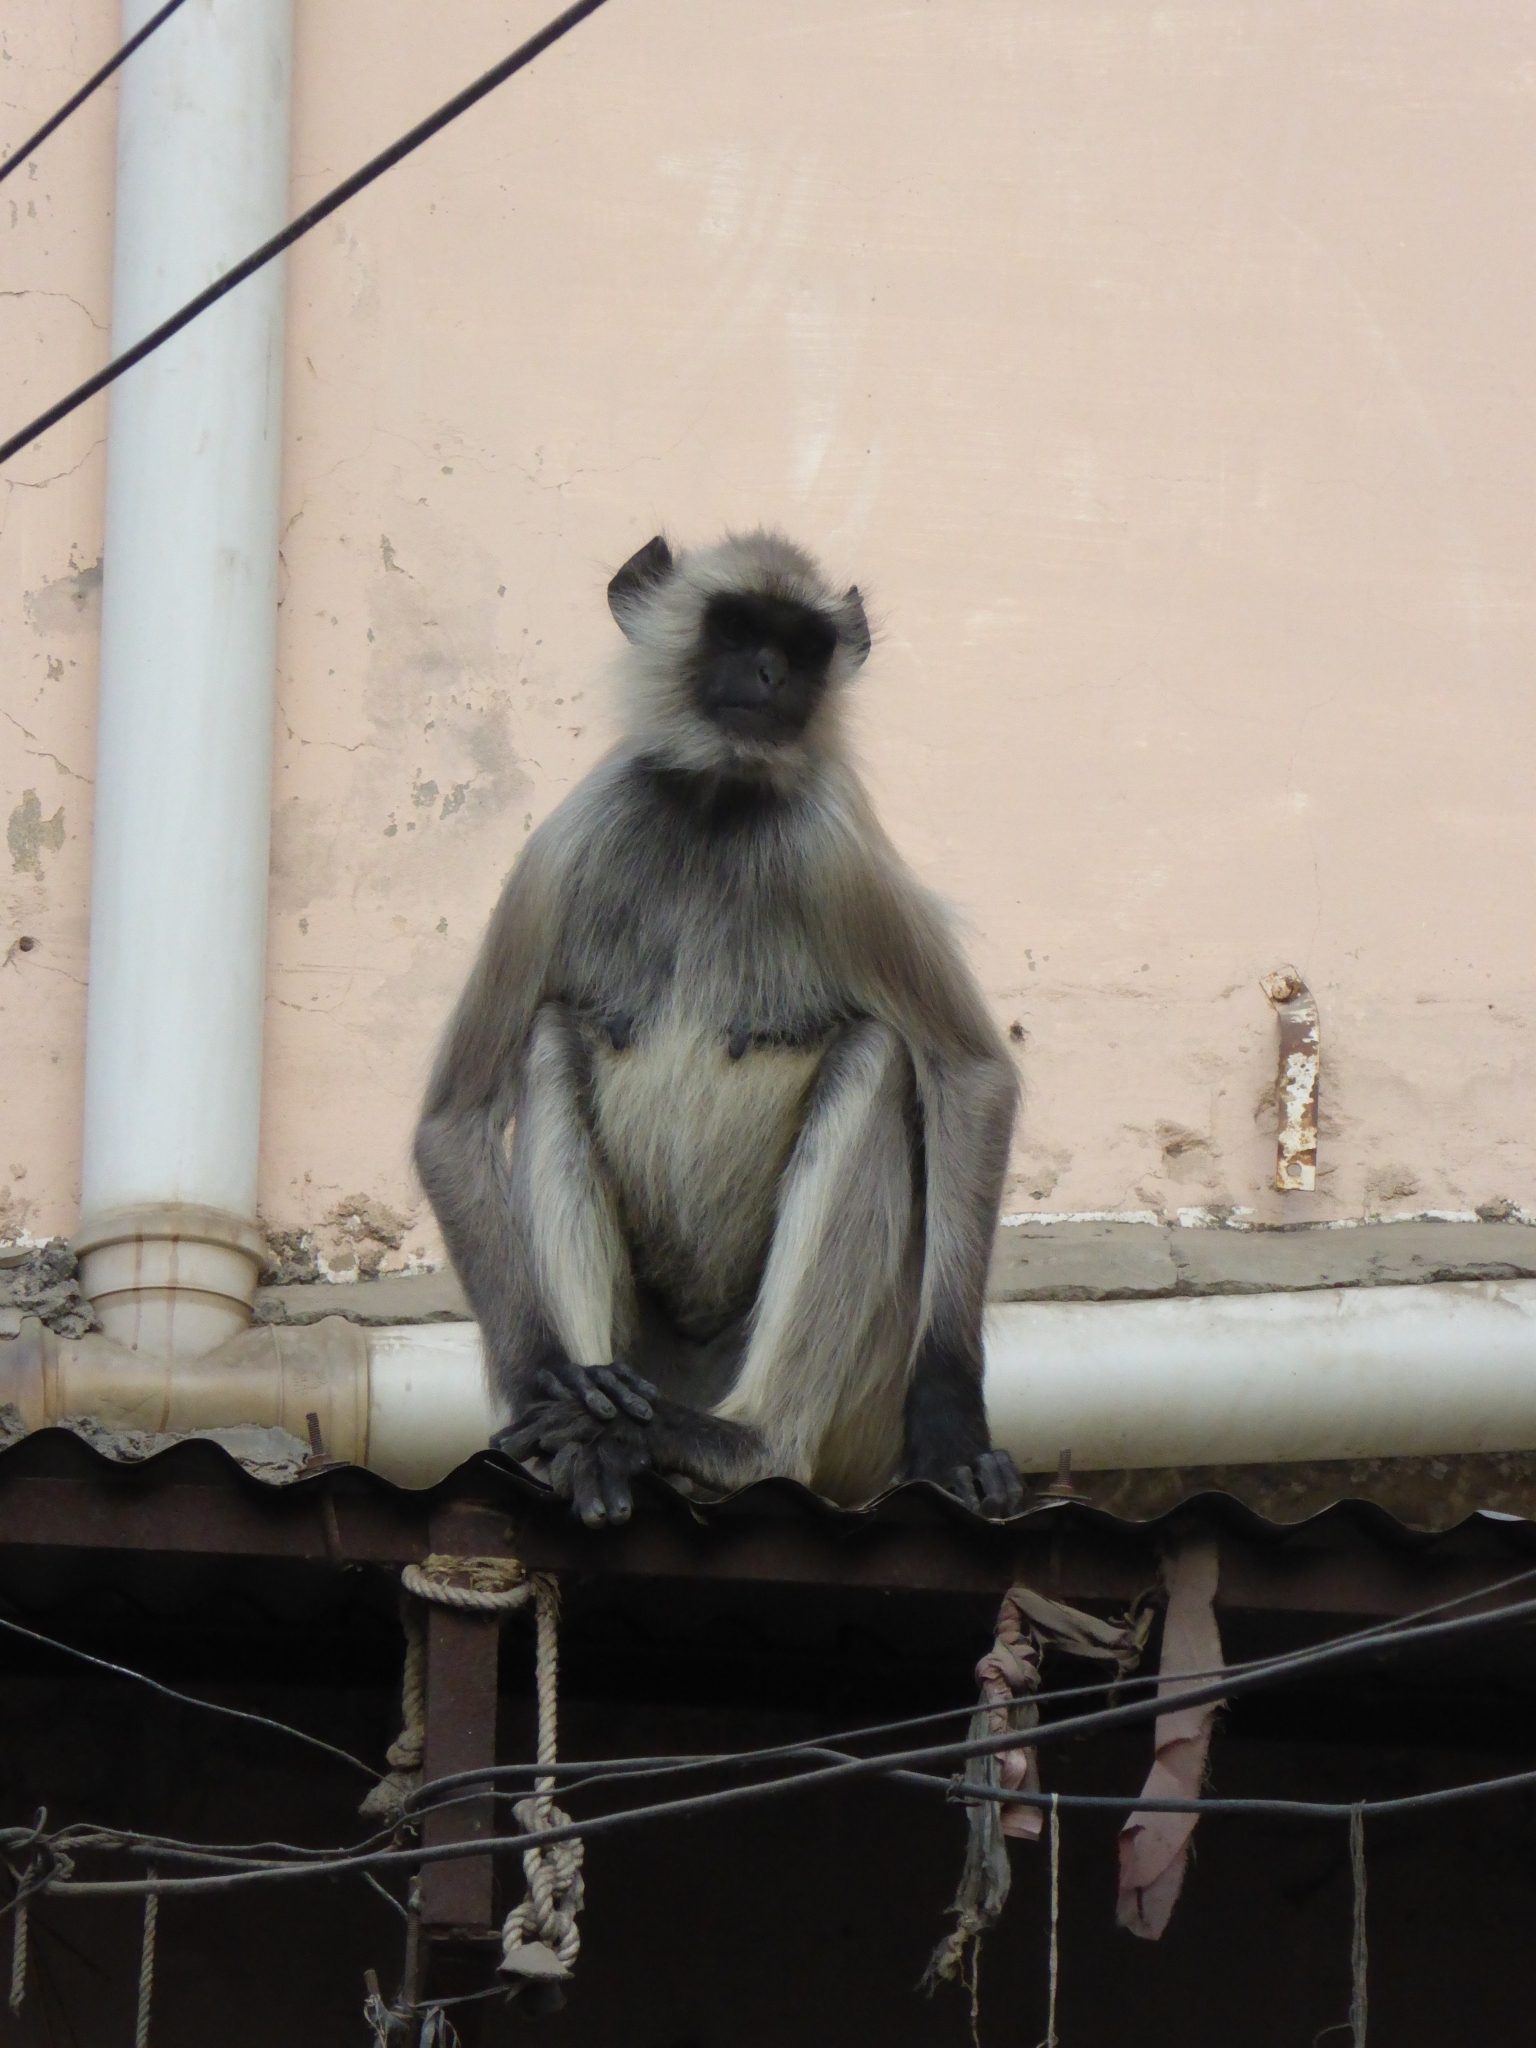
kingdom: Animalia
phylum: Chordata
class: Mammalia
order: Primates
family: Cercopithecidae
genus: Semnopithecus
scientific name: Semnopithecus entellus
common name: Northern plains gray langur
